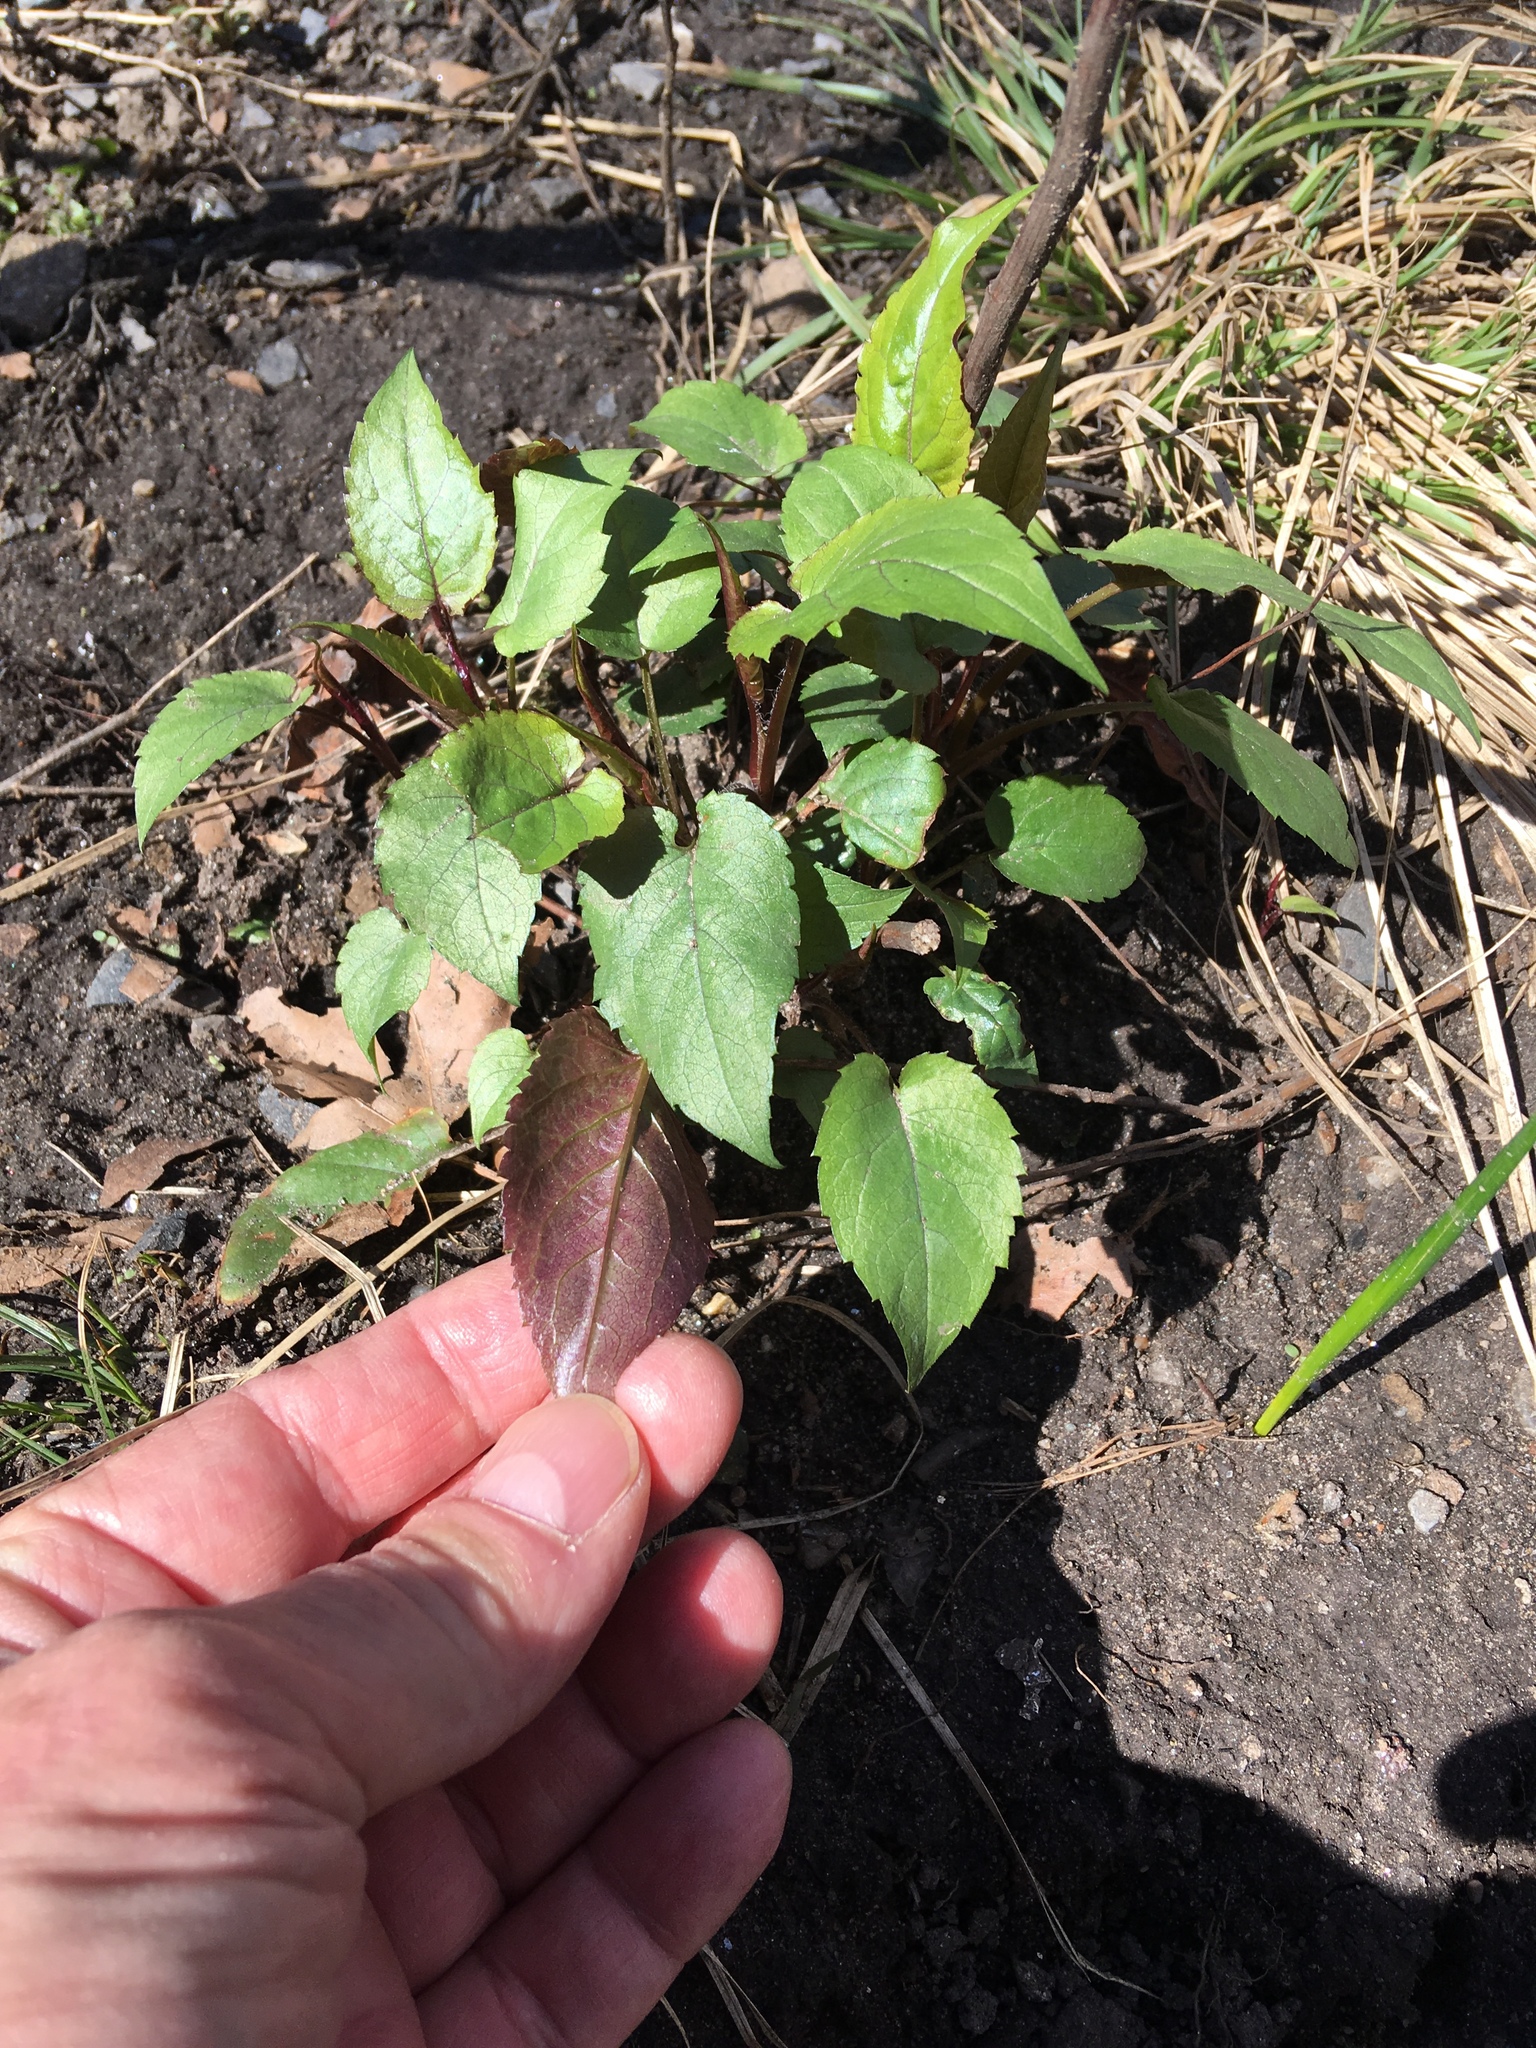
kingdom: Plantae
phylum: Tracheophyta
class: Magnoliopsida
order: Asterales
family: Asteraceae
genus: Symphyotrichum
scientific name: Symphyotrichum cordifolium
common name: Beeweed
